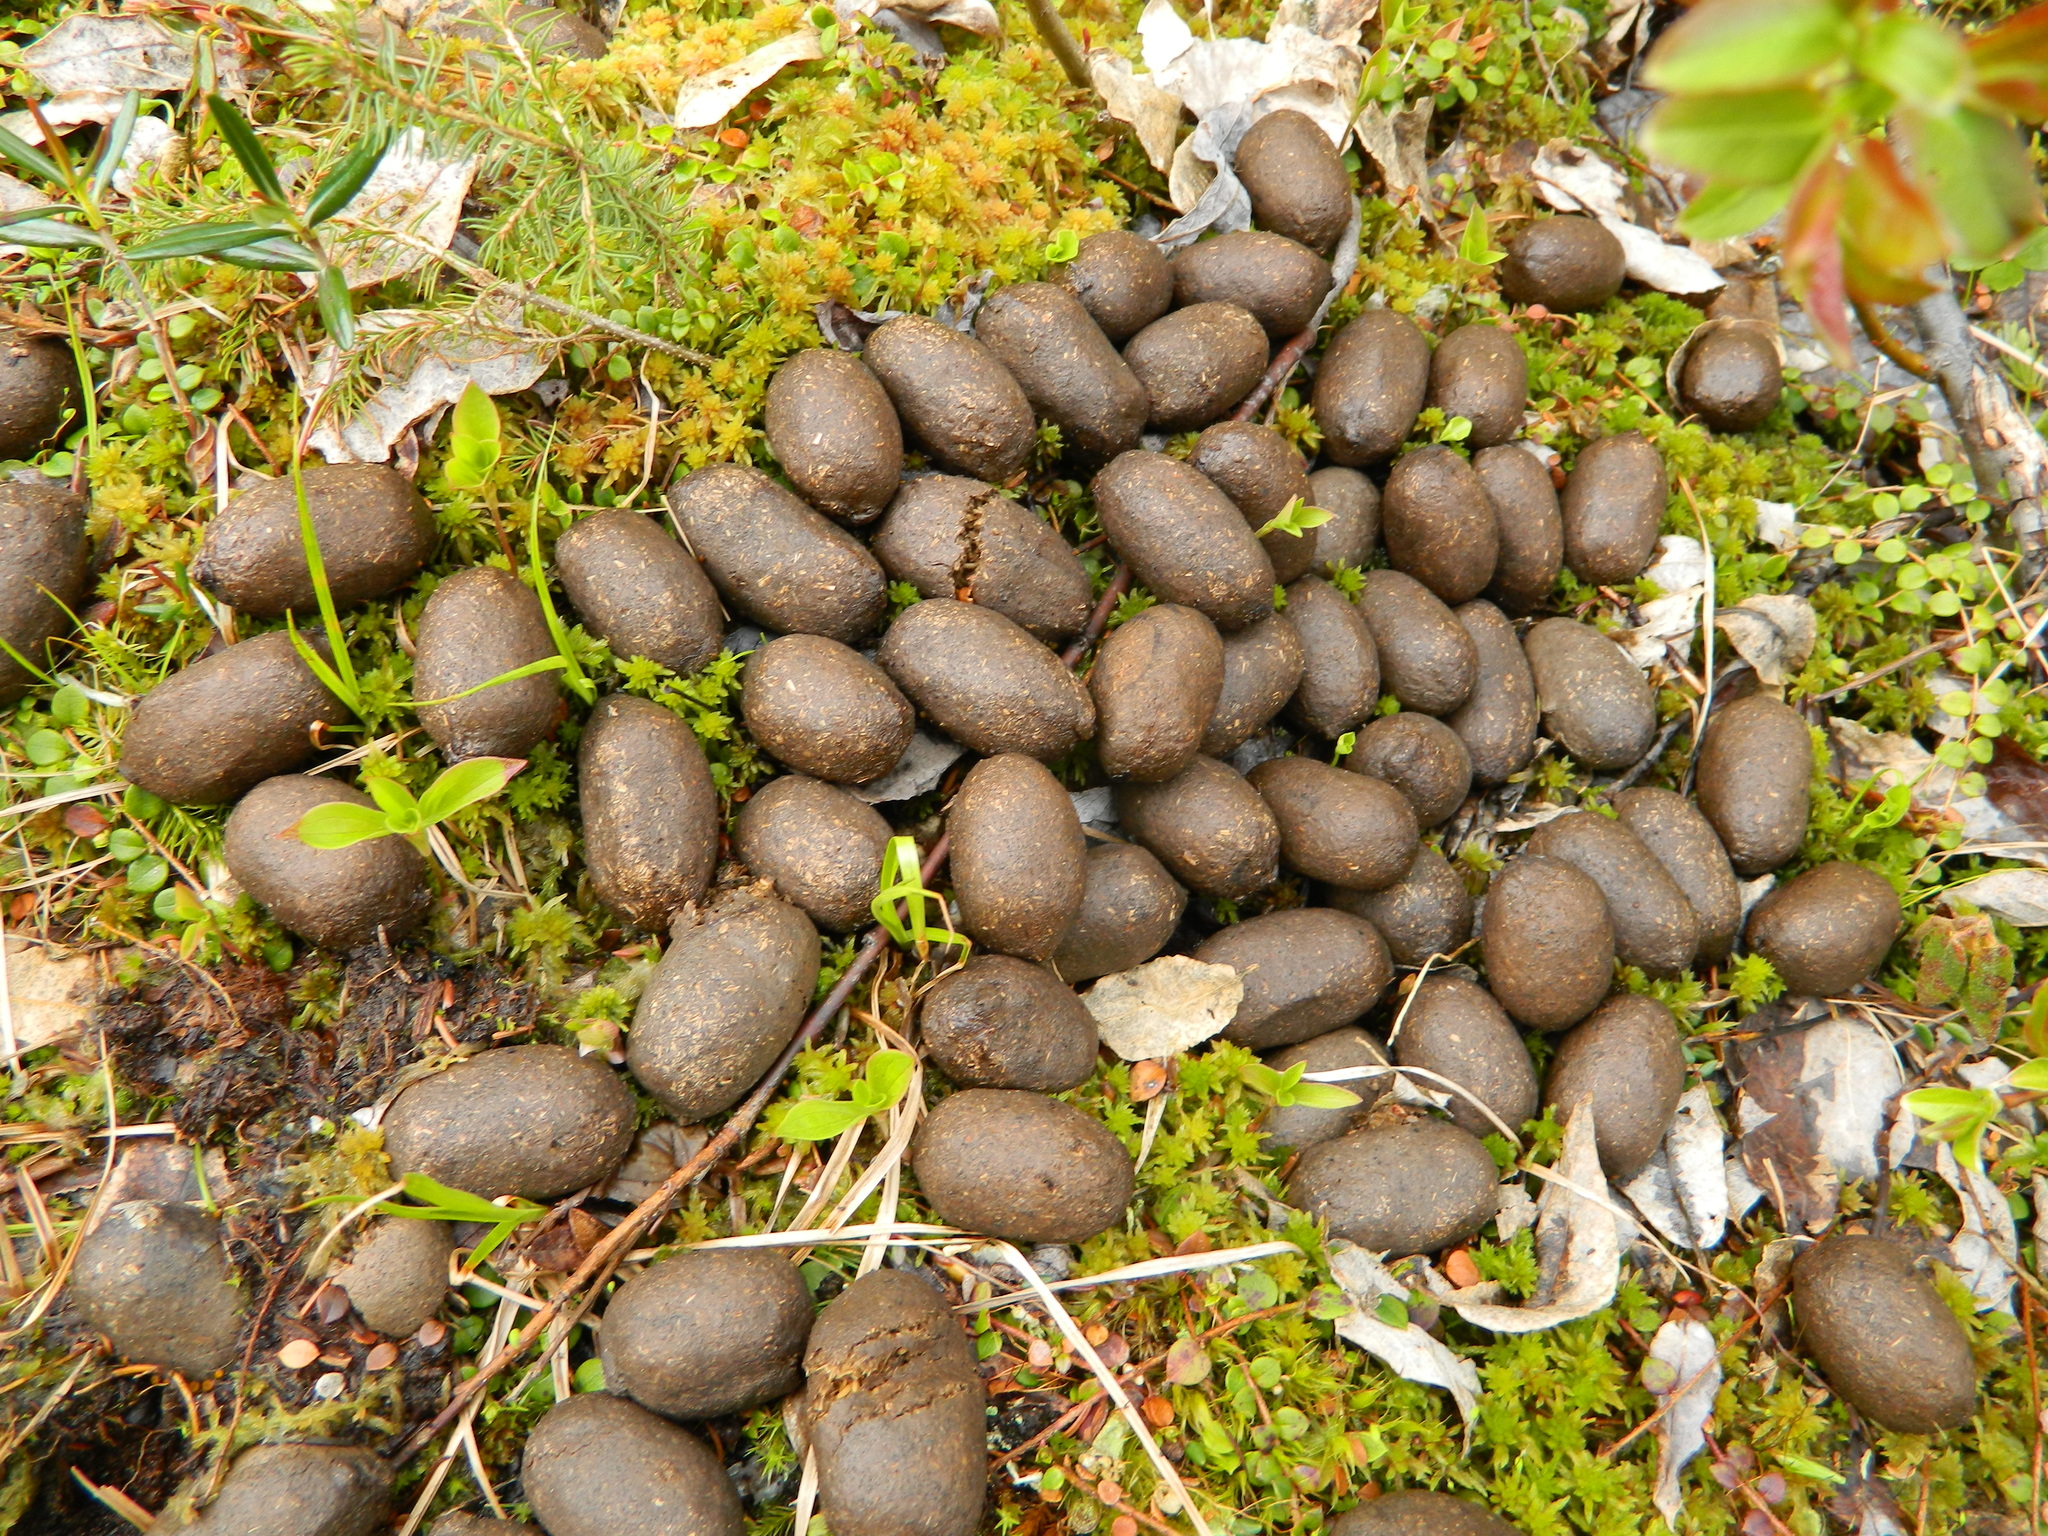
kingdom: Animalia
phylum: Chordata
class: Mammalia
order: Artiodactyla
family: Cervidae
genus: Alces
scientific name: Alces alces
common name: Moose
